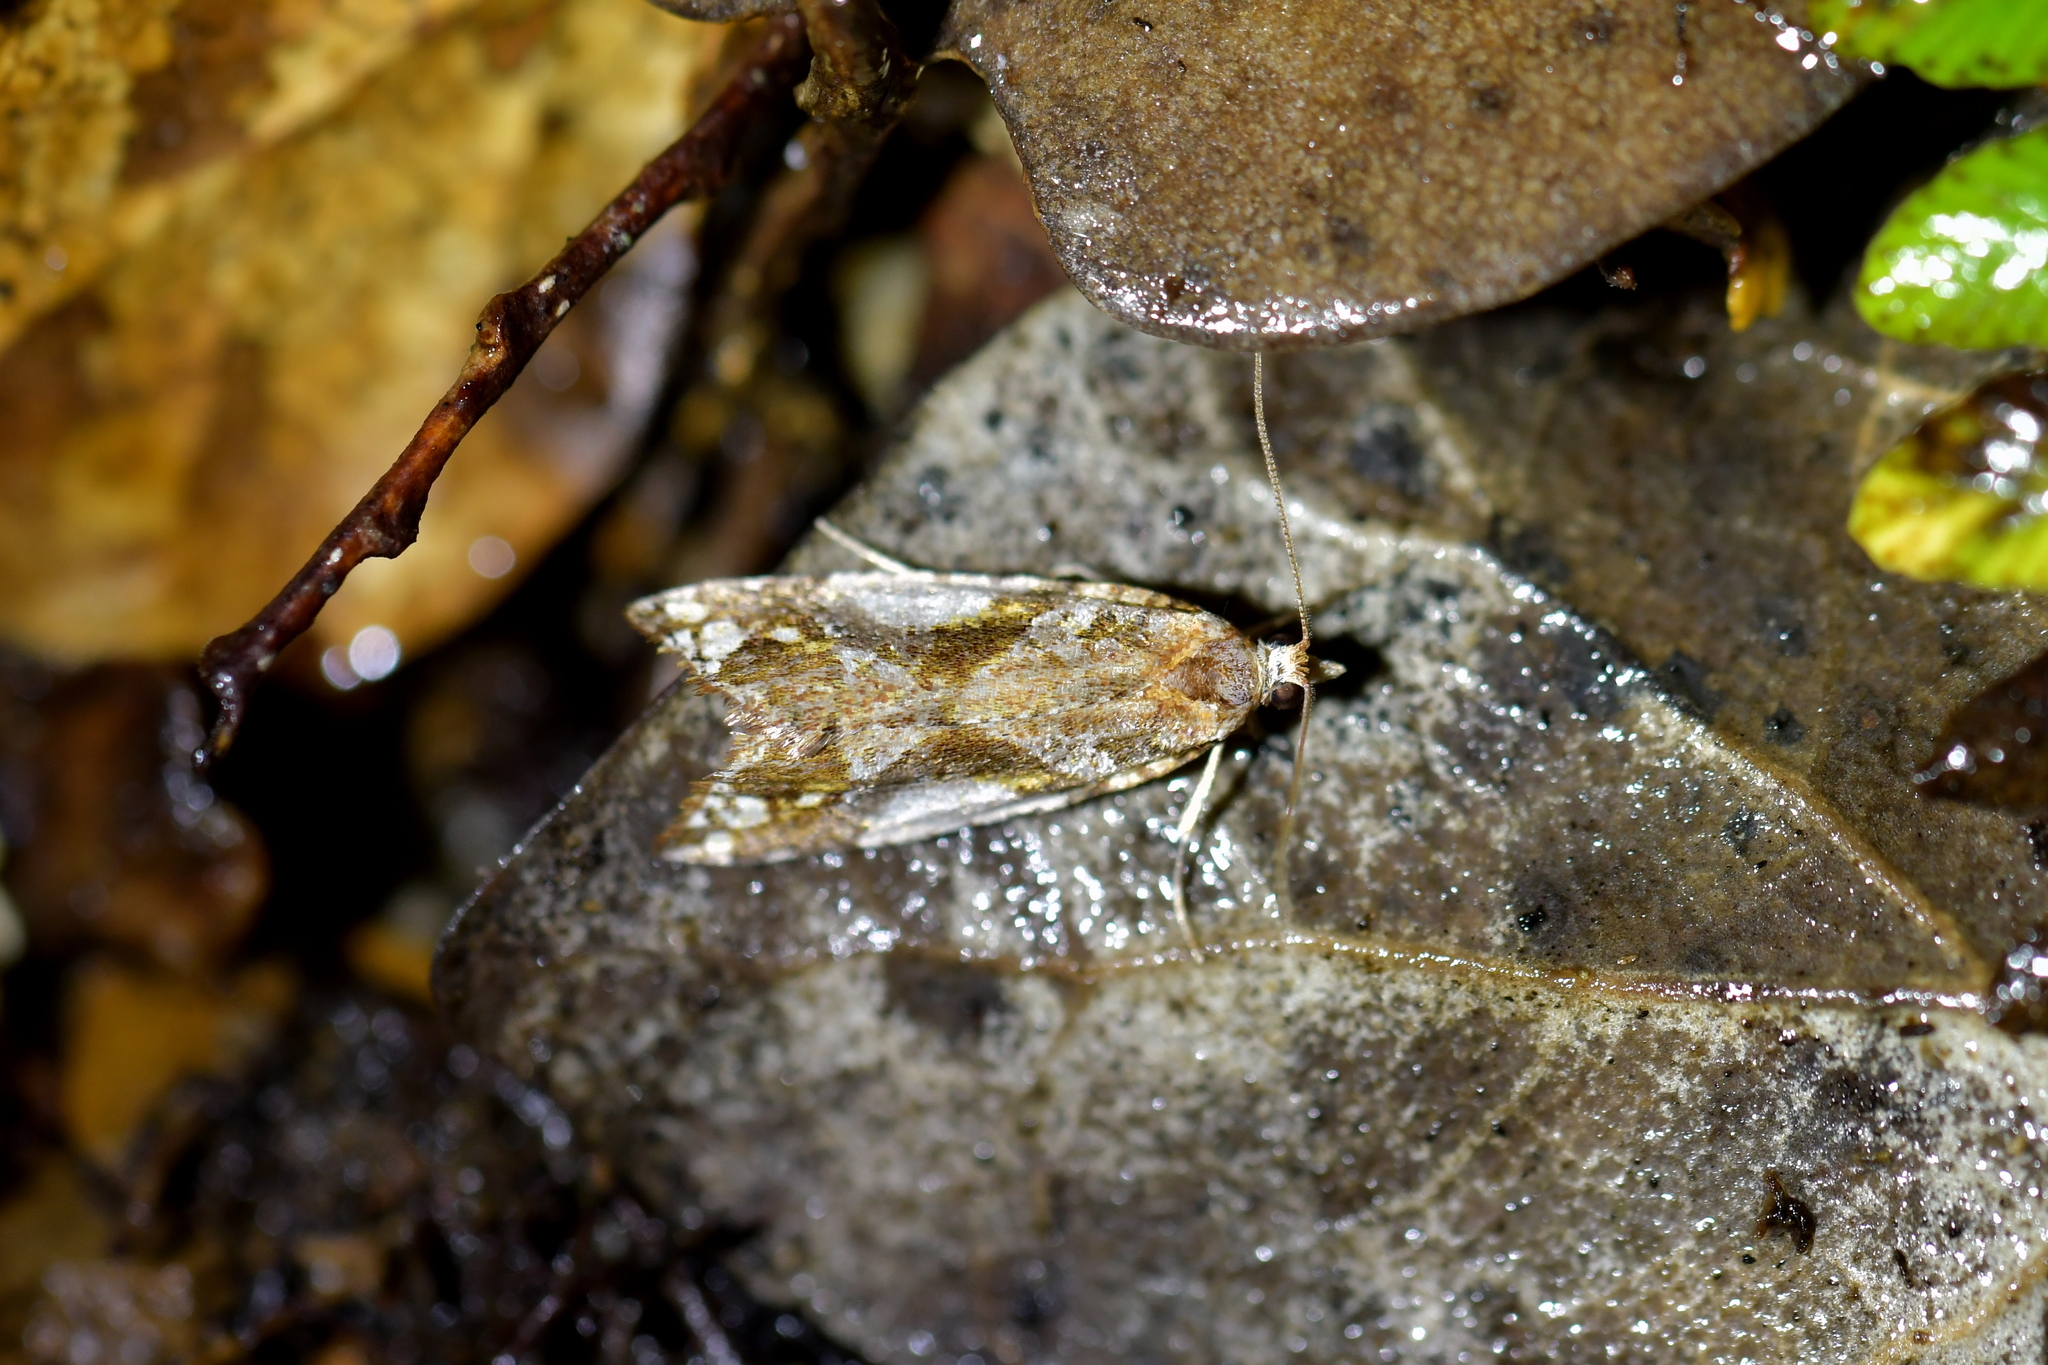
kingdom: Animalia
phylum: Arthropoda
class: Insecta
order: Lepidoptera
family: Tortricidae
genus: Pyrgotis
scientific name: Pyrgotis plagiatana
